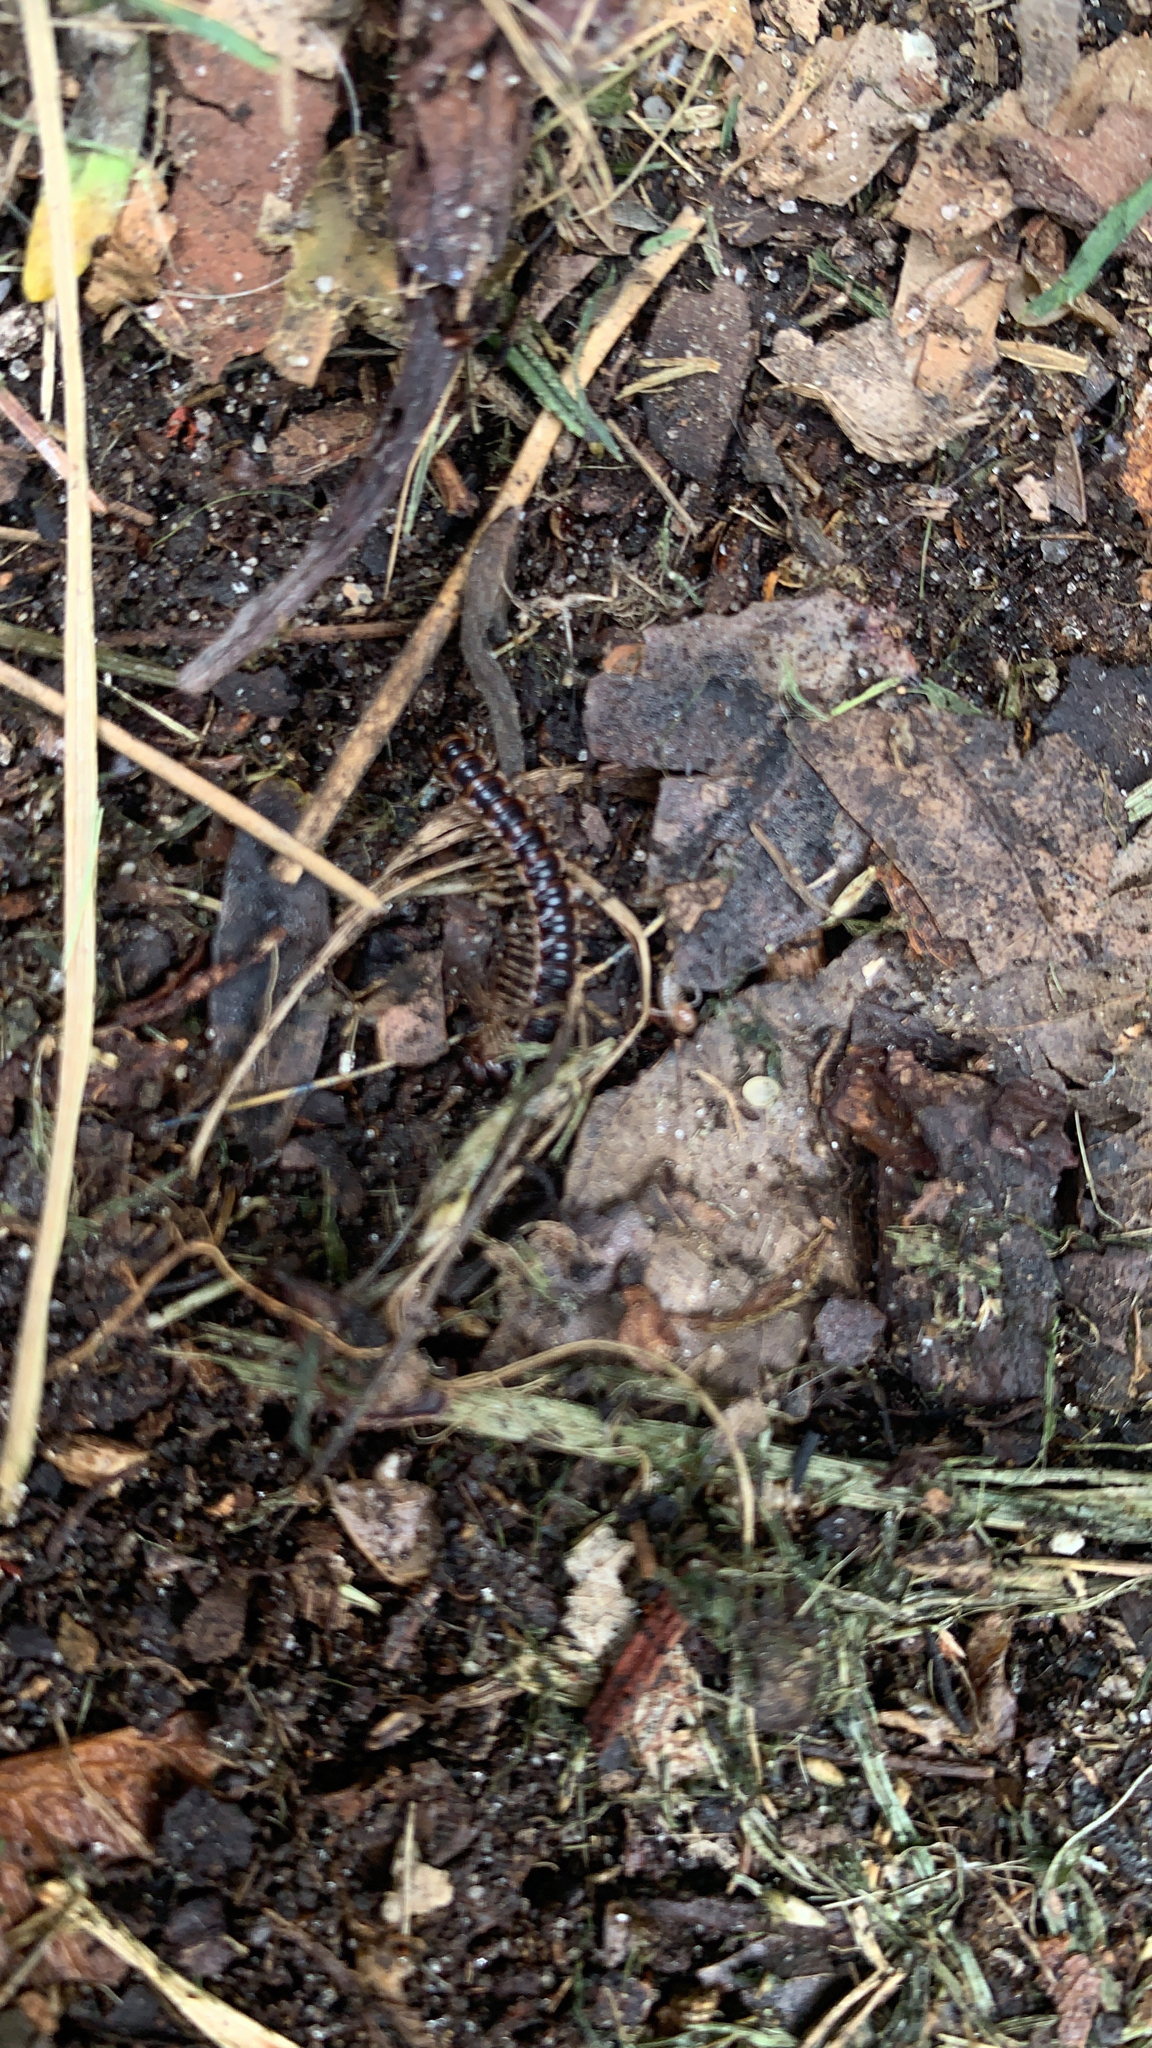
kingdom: Animalia
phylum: Arthropoda
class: Diplopoda
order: Polydesmida
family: Paradoxosomatidae
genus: Oxidus
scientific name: Oxidus gracilis
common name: Greenhouse millipede
